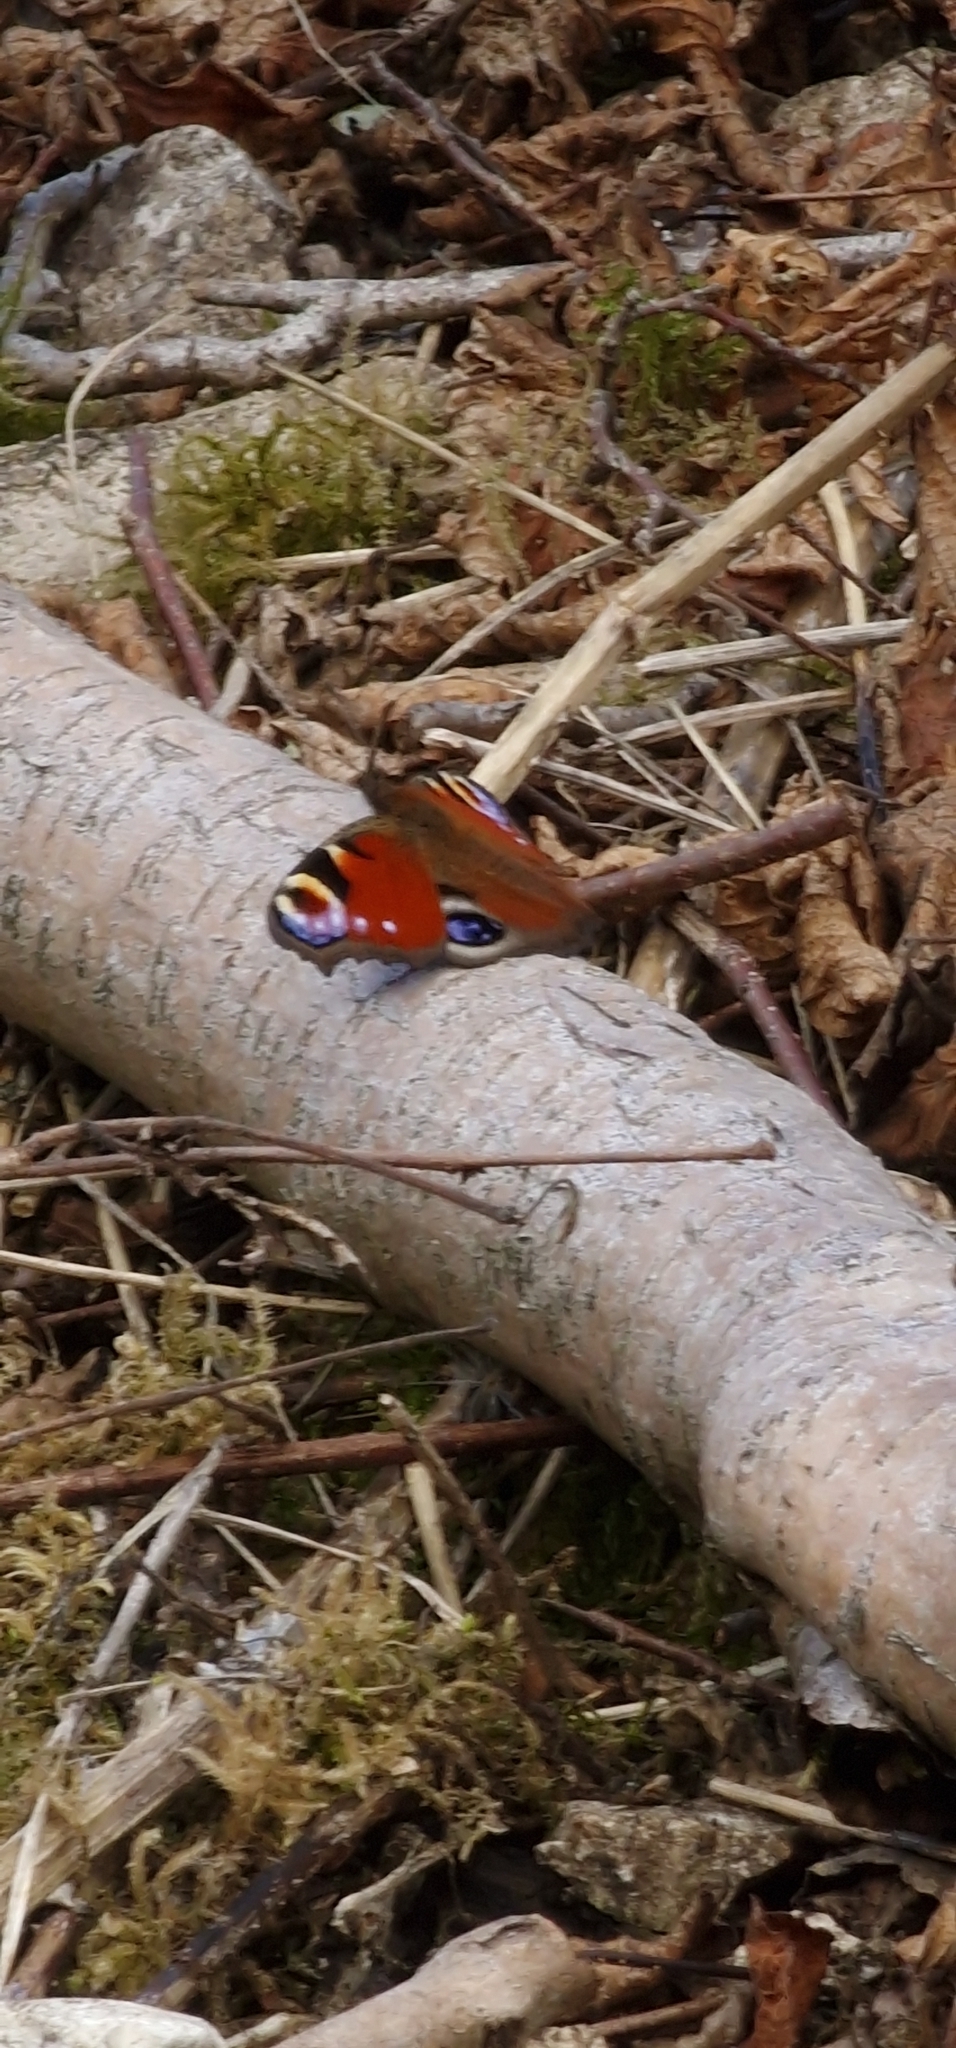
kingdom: Animalia
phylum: Arthropoda
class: Insecta
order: Lepidoptera
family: Nymphalidae
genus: Aglais
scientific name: Aglais io
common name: Peacock
